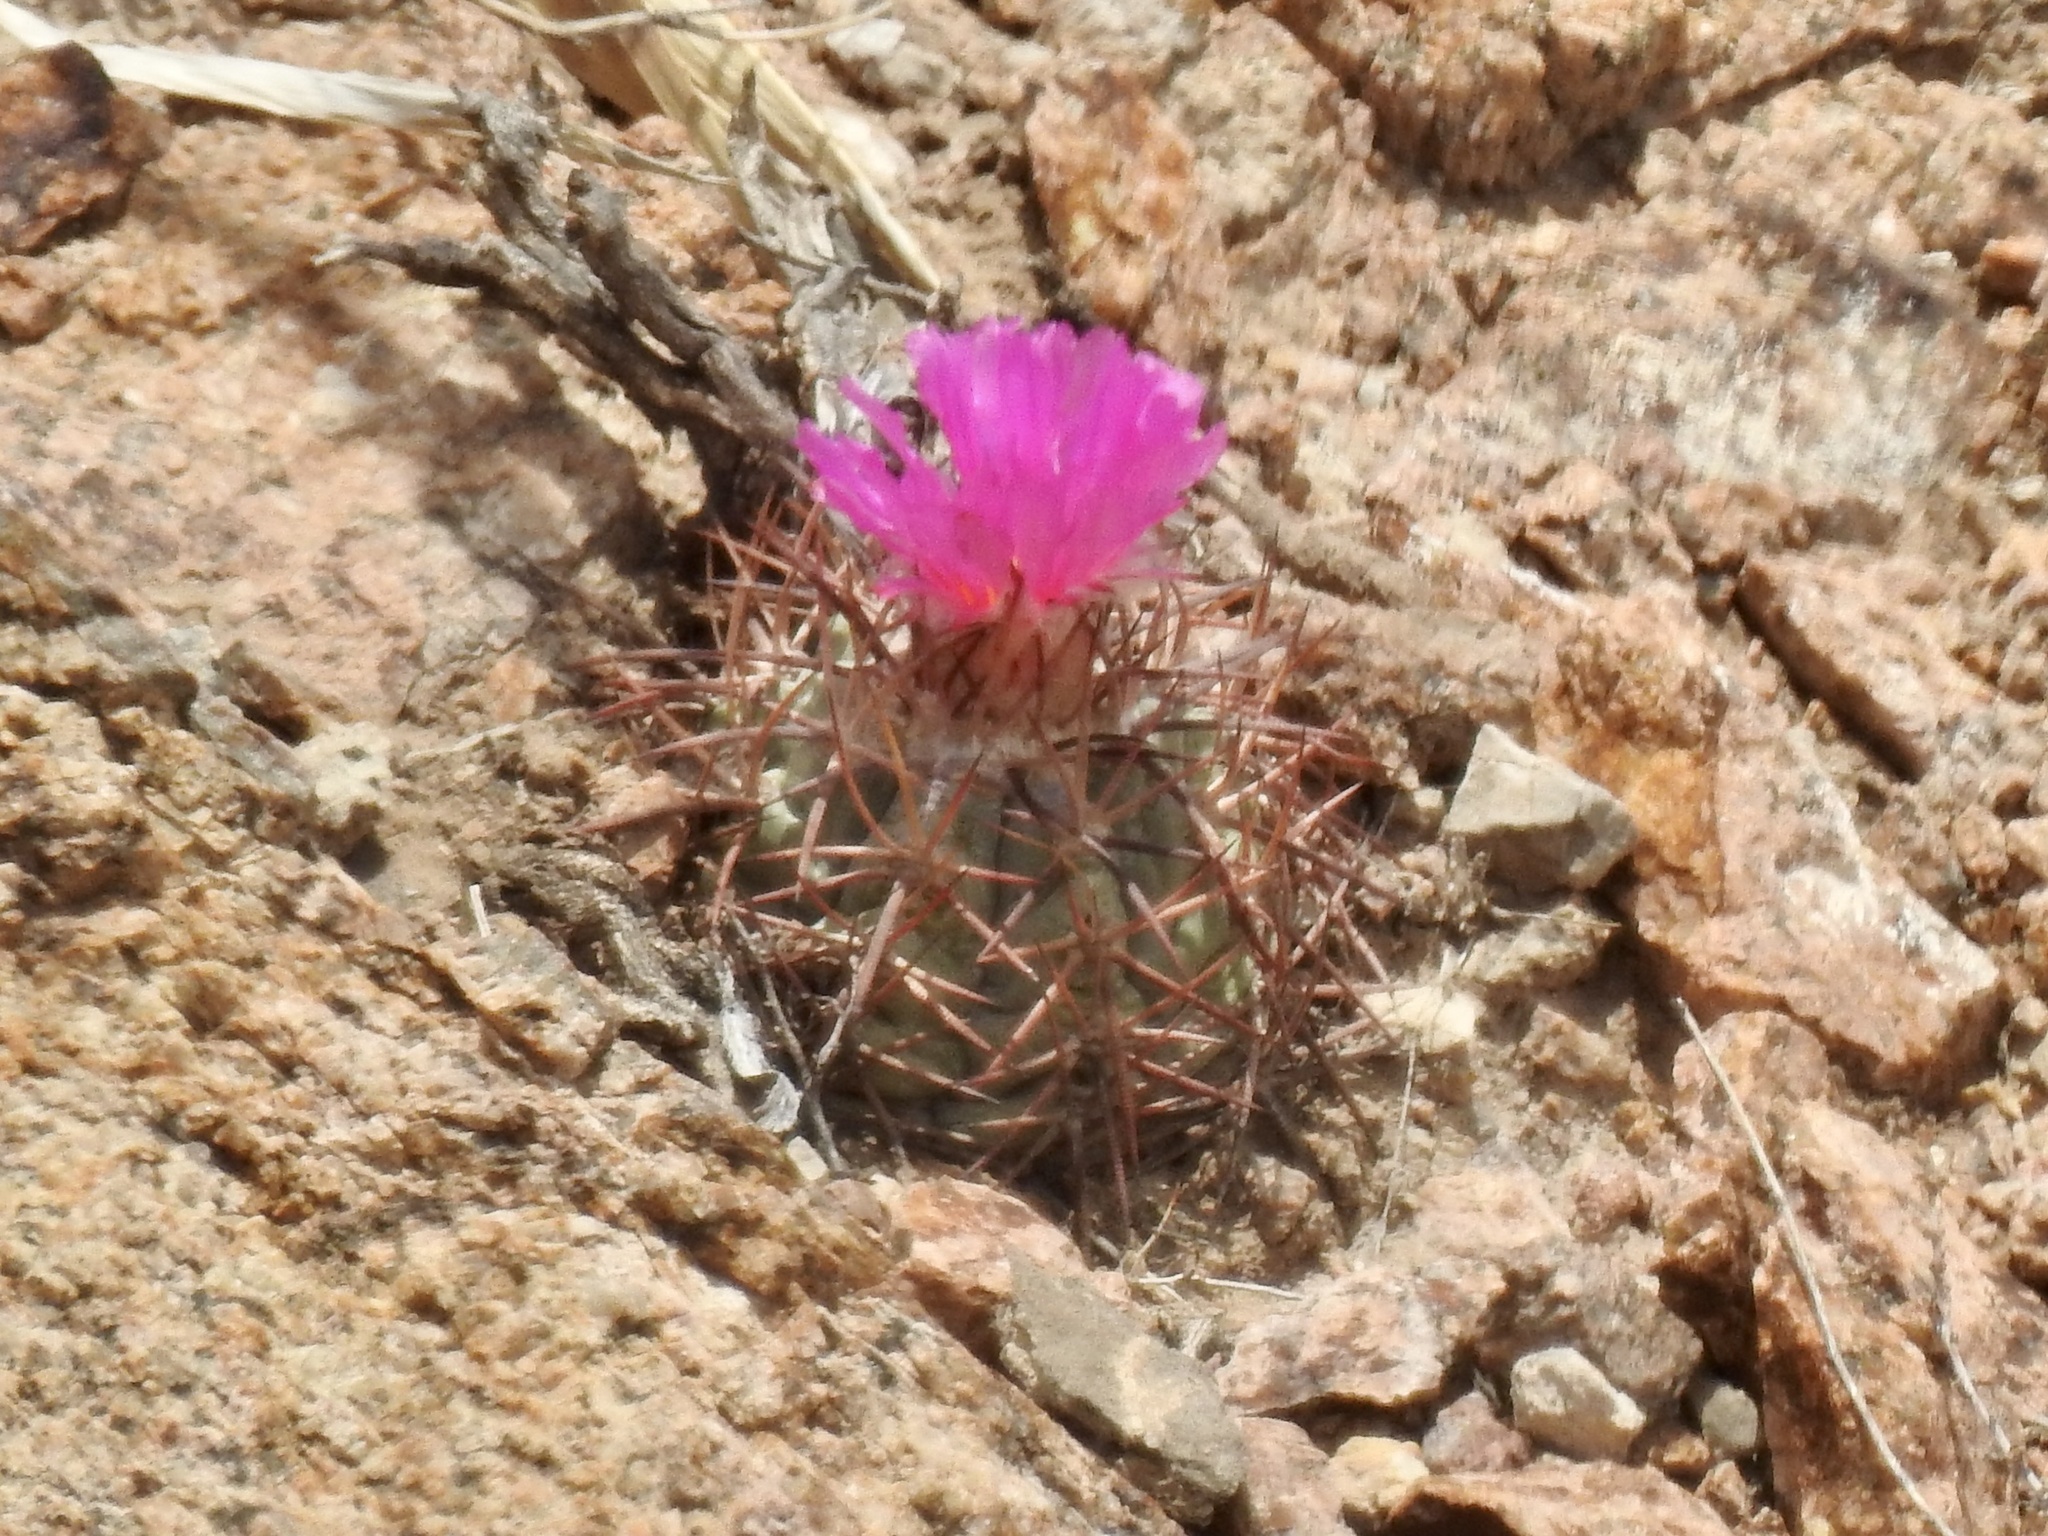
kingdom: Plantae
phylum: Tracheophyta
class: Magnoliopsida
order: Caryophyllales
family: Cactaceae
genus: Echinocactus
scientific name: Echinocactus horizonthalonius
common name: Devilshead
